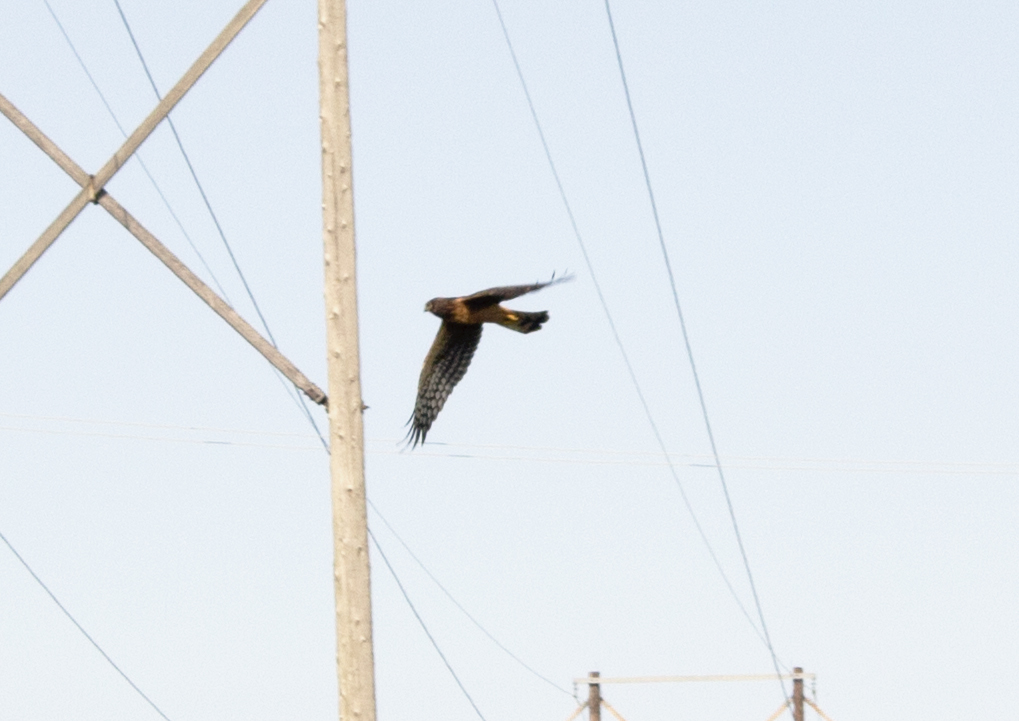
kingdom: Animalia
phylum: Chordata
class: Aves
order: Accipitriformes
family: Accipitridae
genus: Circus
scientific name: Circus cyaneus
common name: Hen harrier
